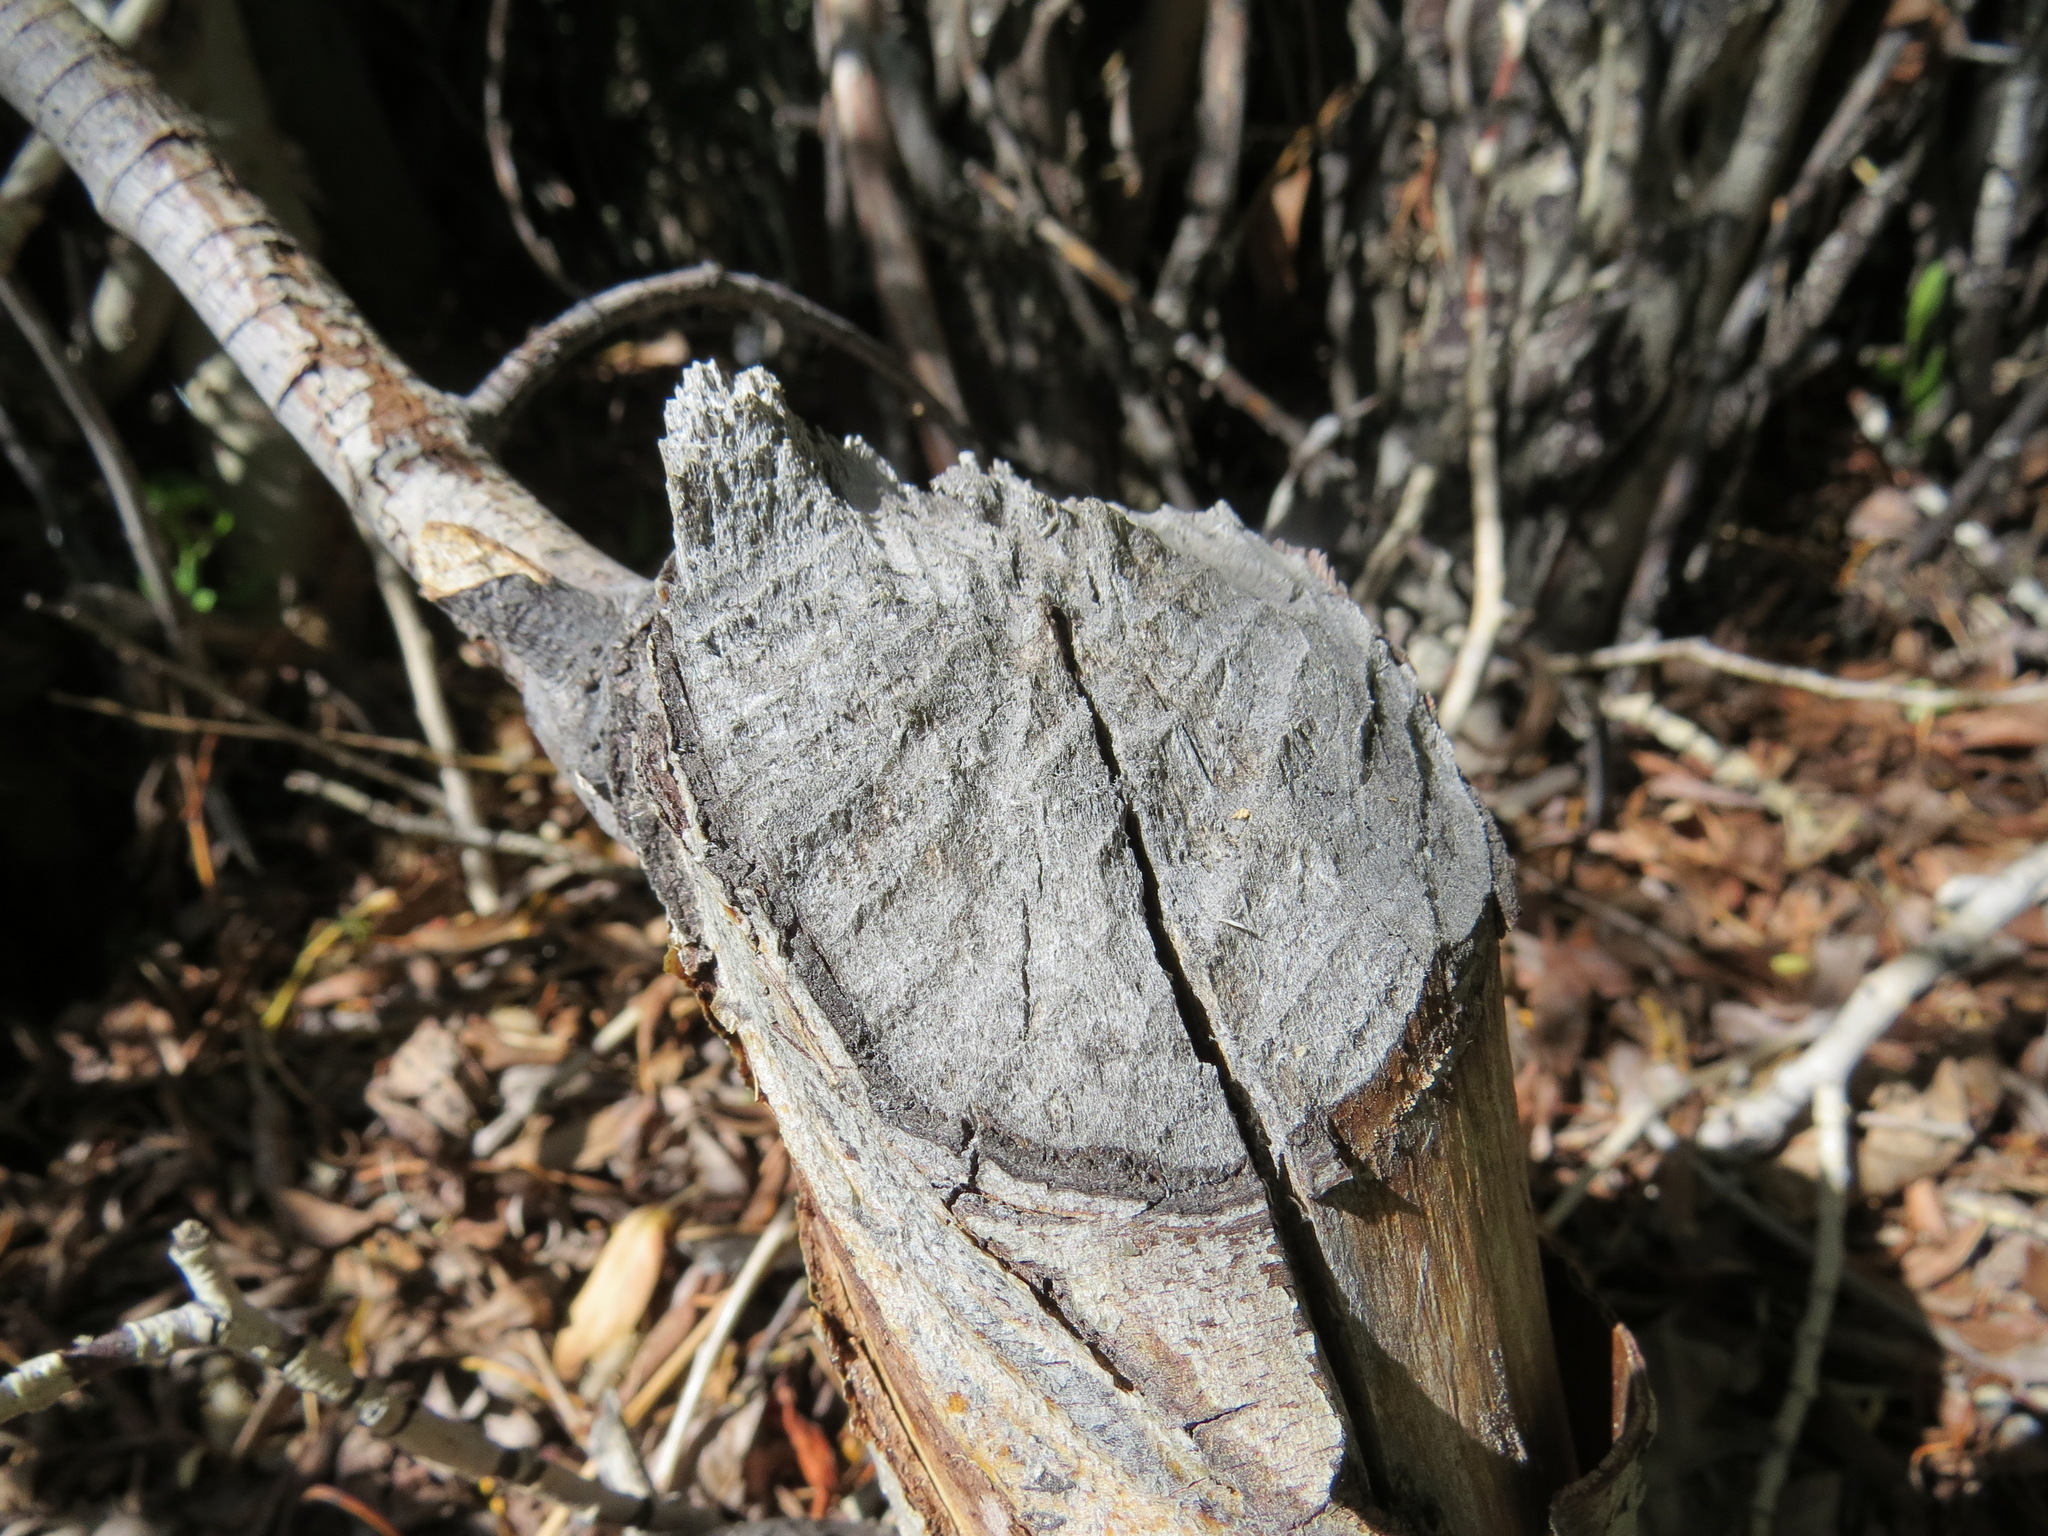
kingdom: Animalia
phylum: Chordata
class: Mammalia
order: Rodentia
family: Castoridae
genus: Castor
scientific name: Castor canadensis
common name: American beaver
